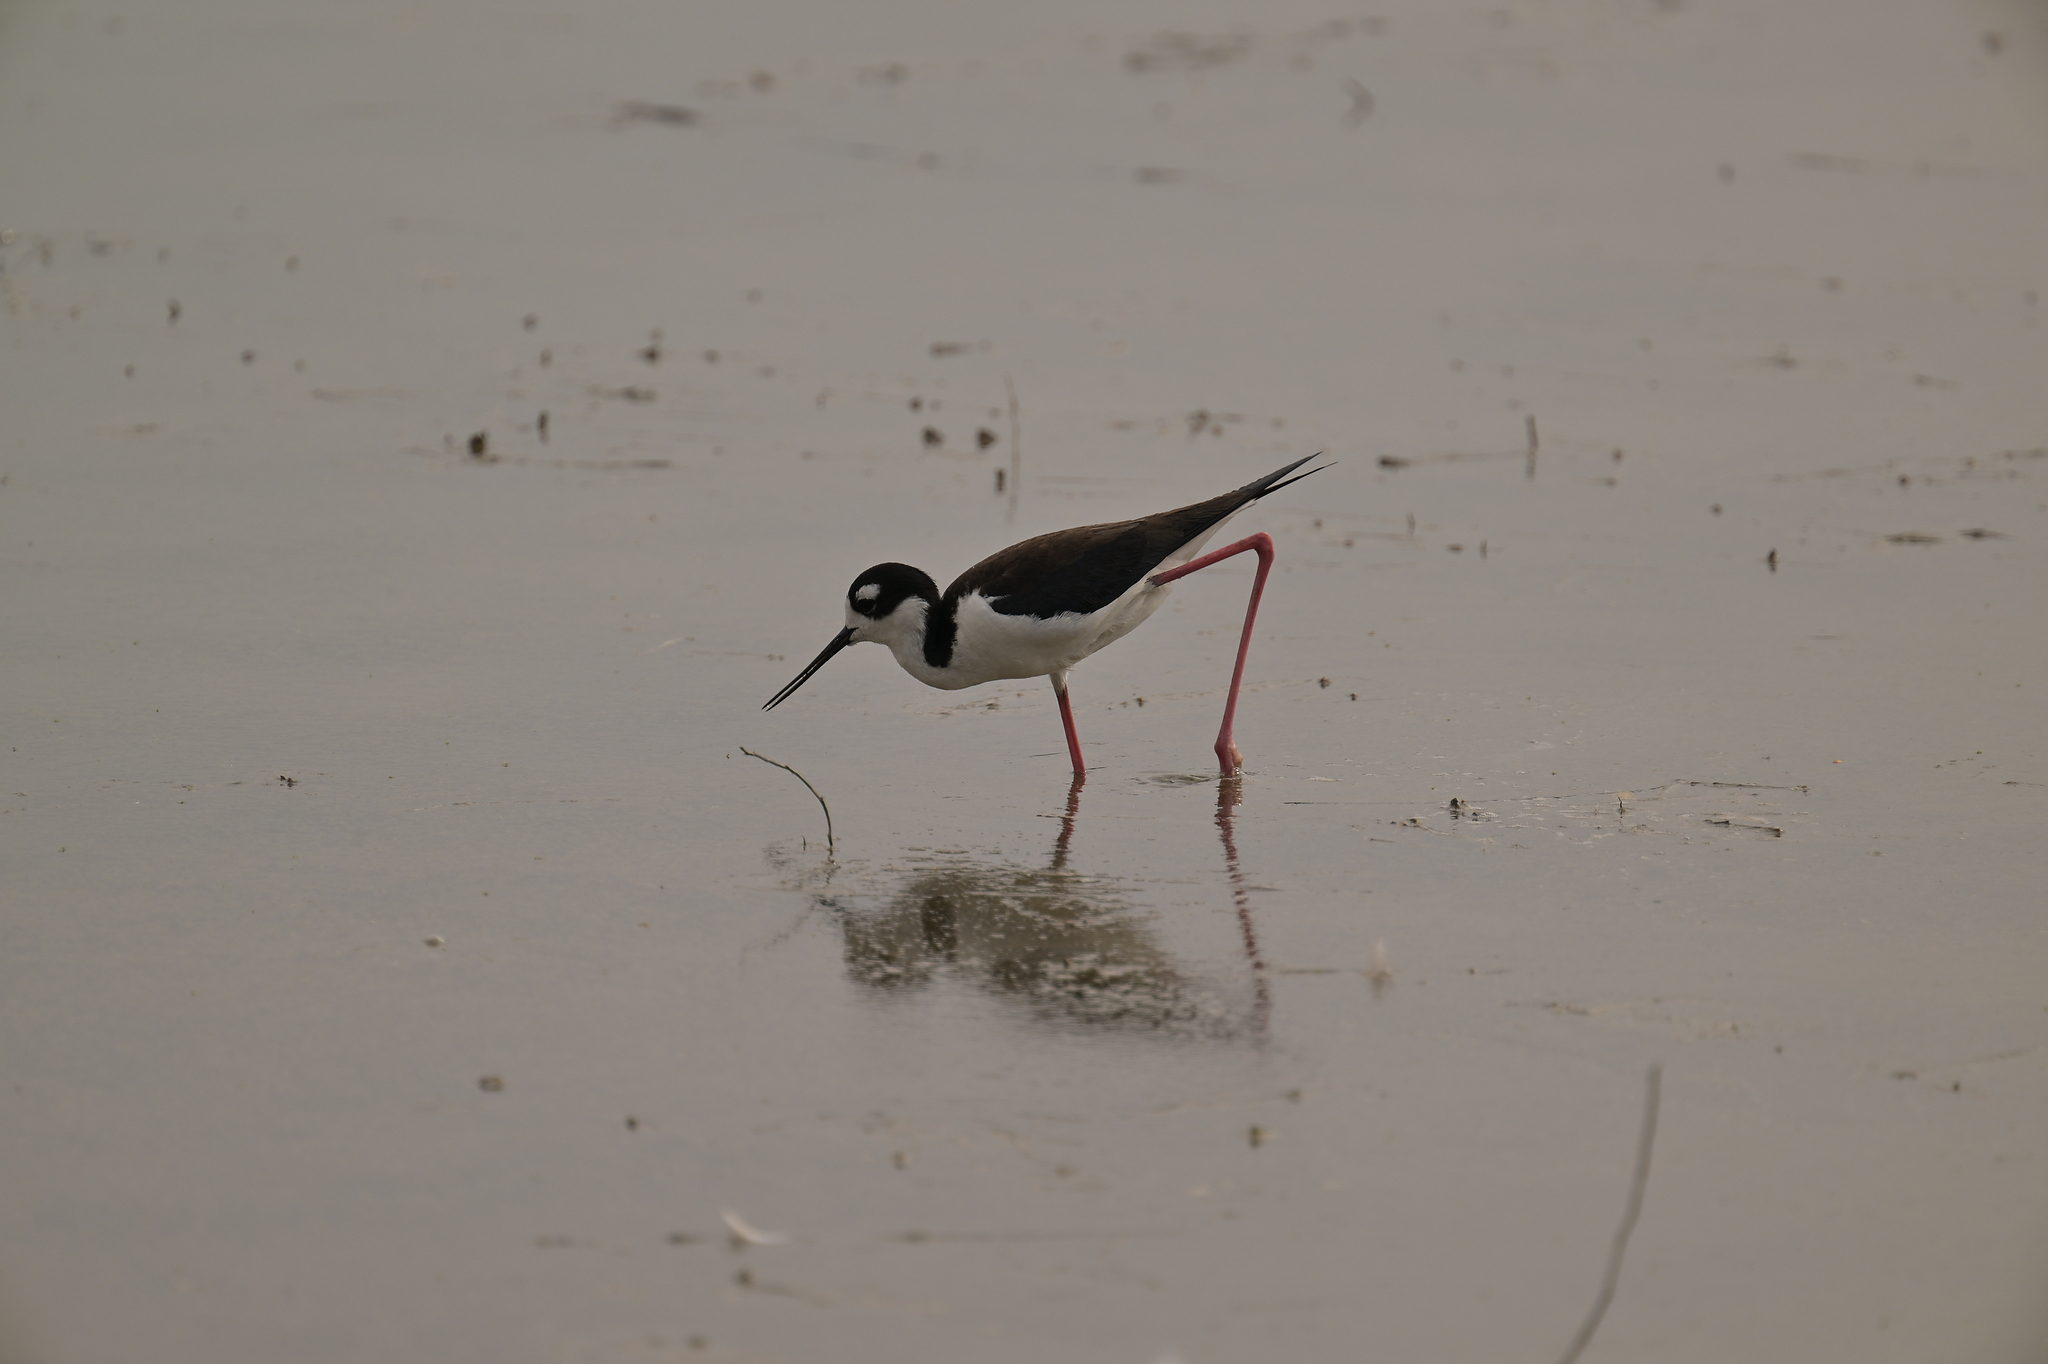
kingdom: Animalia
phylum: Chordata
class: Aves
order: Charadriiformes
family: Recurvirostridae
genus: Himantopus
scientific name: Himantopus mexicanus
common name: Black-necked stilt
